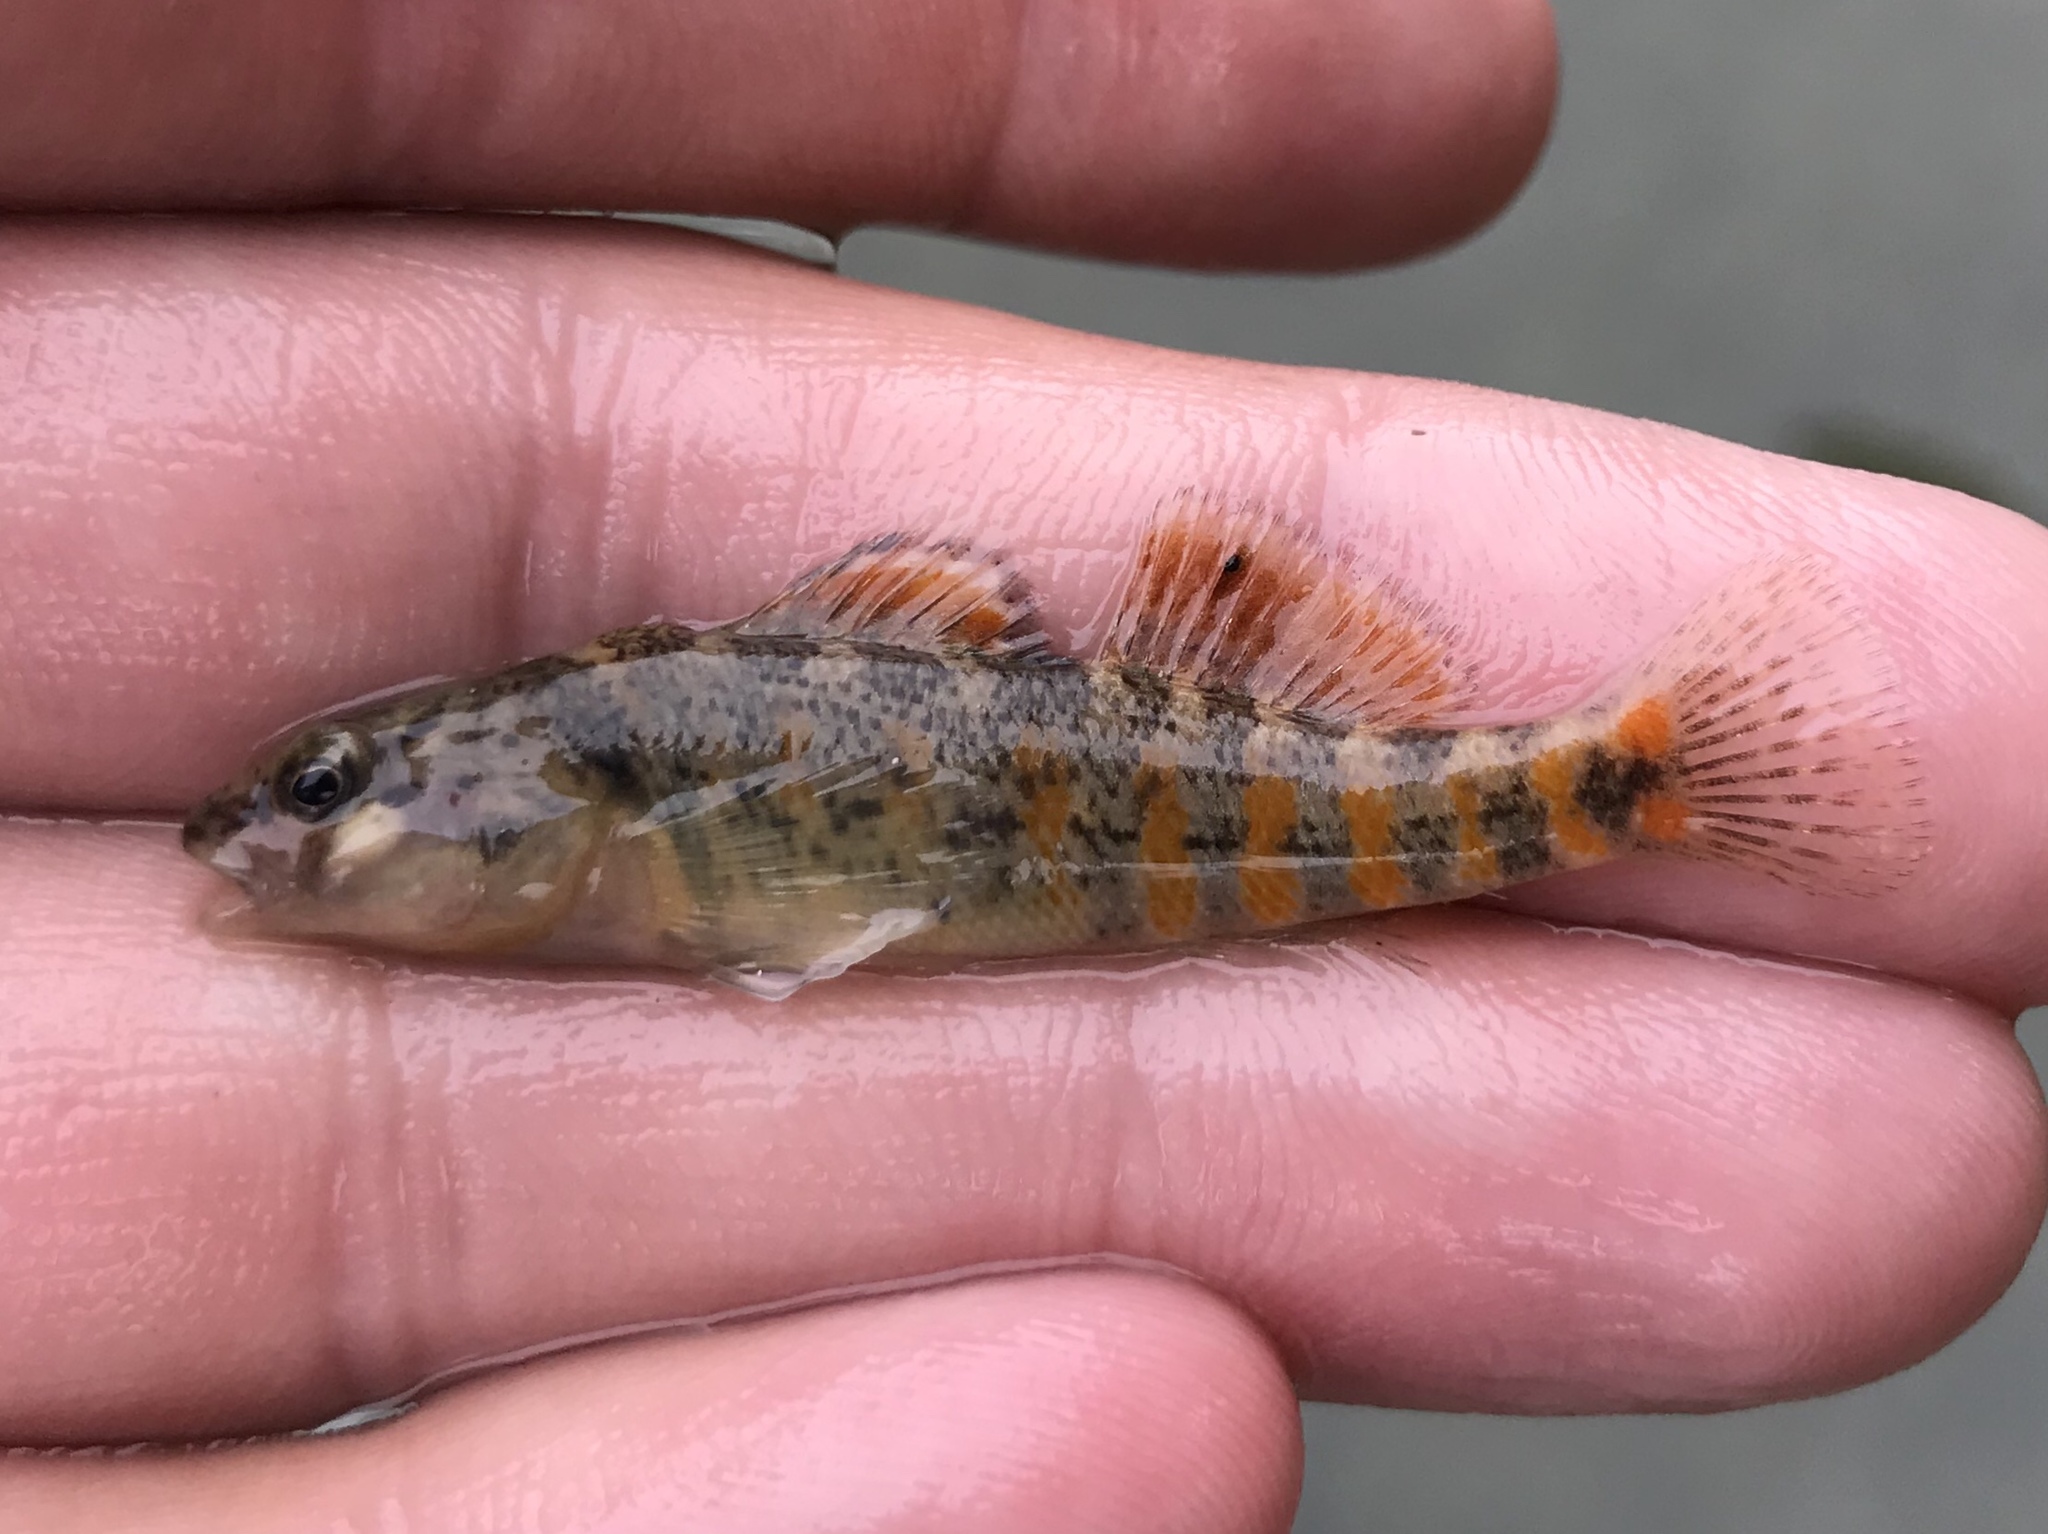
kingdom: Animalia
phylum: Chordata
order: Perciformes
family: Percidae
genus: Etheostoma
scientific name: Etheostoma pulchellum
